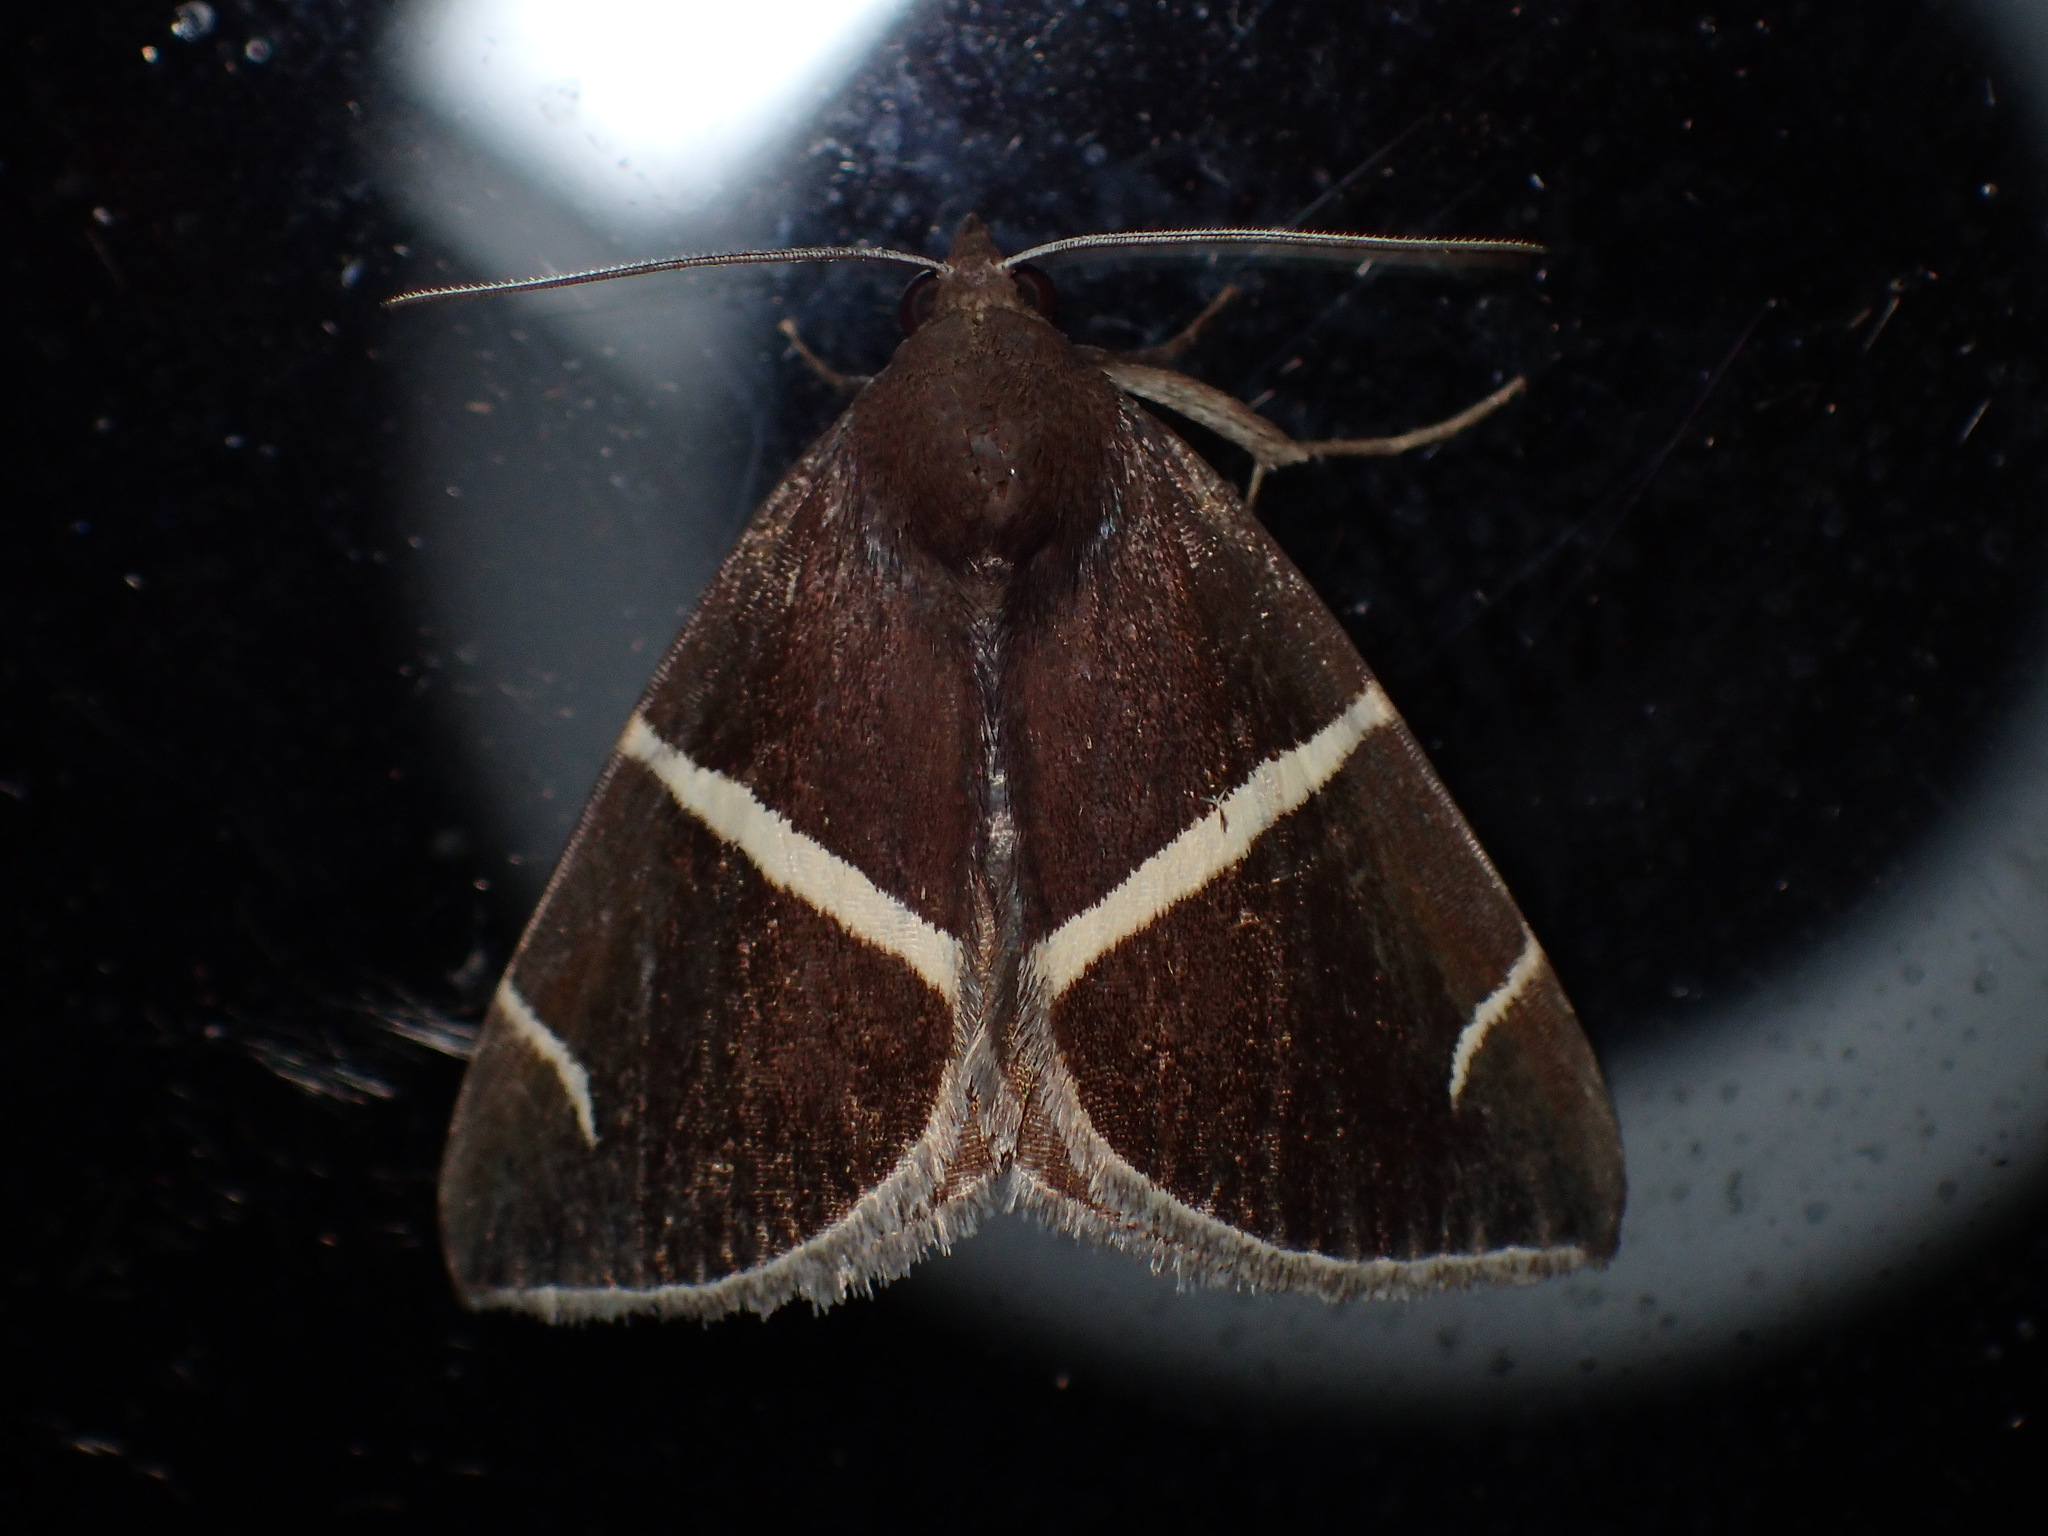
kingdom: Animalia
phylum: Arthropoda
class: Insecta
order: Lepidoptera
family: Erebidae
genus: Argyrostrotis
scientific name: Argyrostrotis anilis
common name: Short-lined chocolate
